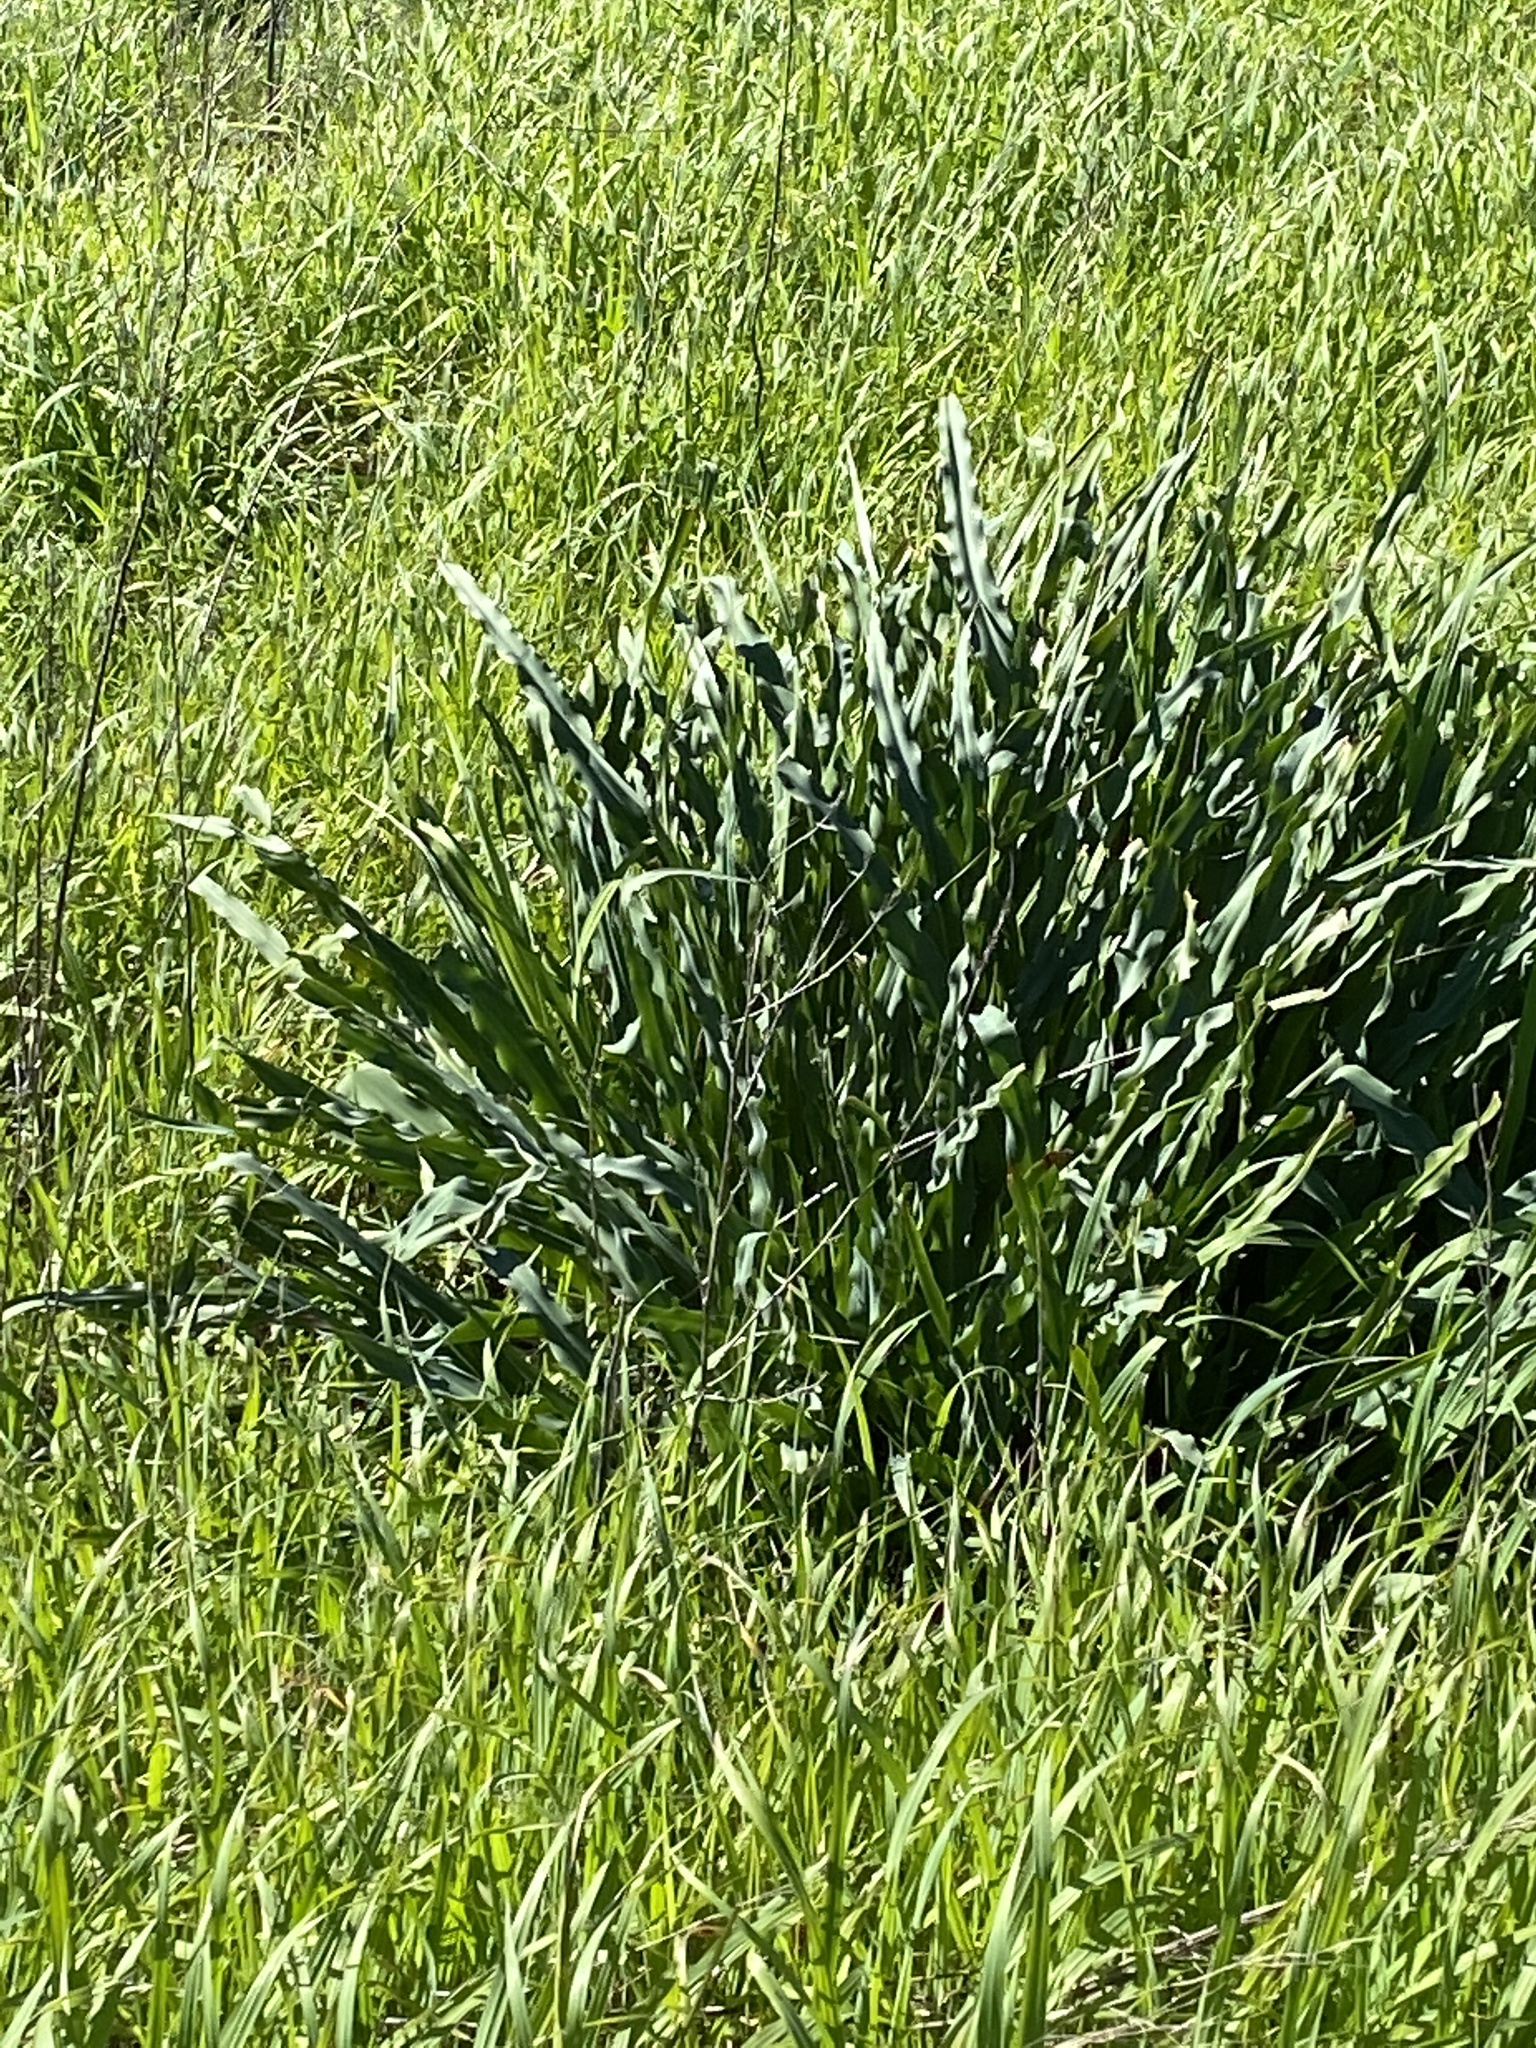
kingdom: Plantae
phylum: Tracheophyta
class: Liliopsida
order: Asparagales
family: Asparagaceae
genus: Chlorogalum
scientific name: Chlorogalum pomeridianum
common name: Amole
